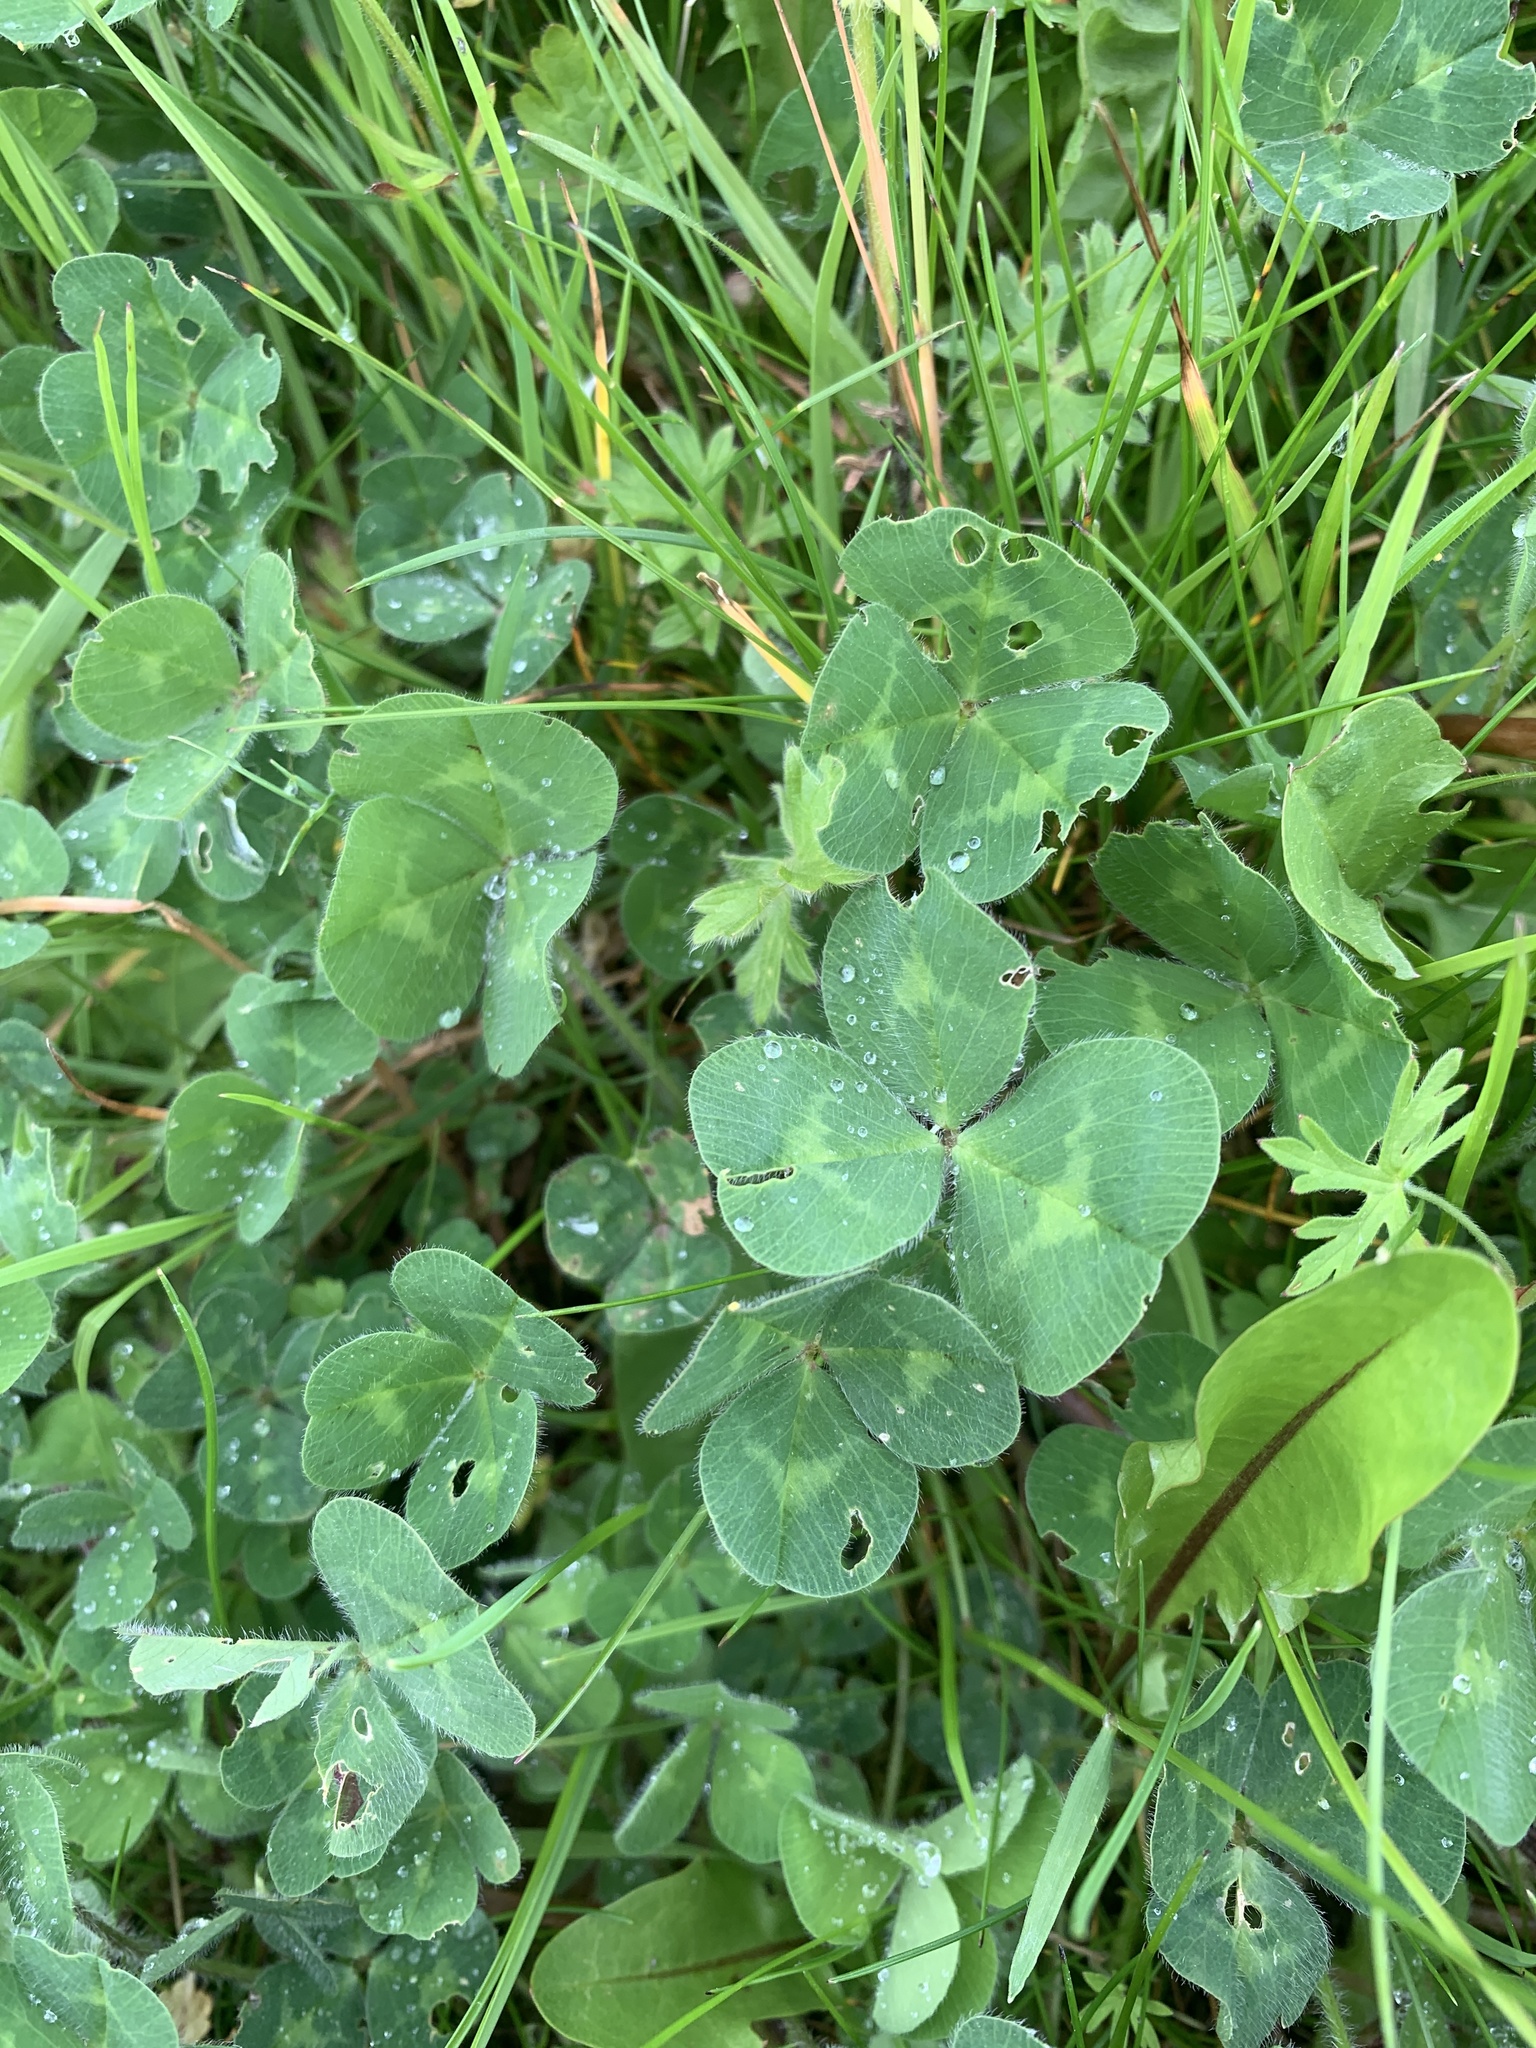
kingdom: Plantae
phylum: Tracheophyta
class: Magnoliopsida
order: Fabales
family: Fabaceae
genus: Trifolium
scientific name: Trifolium pratense
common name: Red clover
